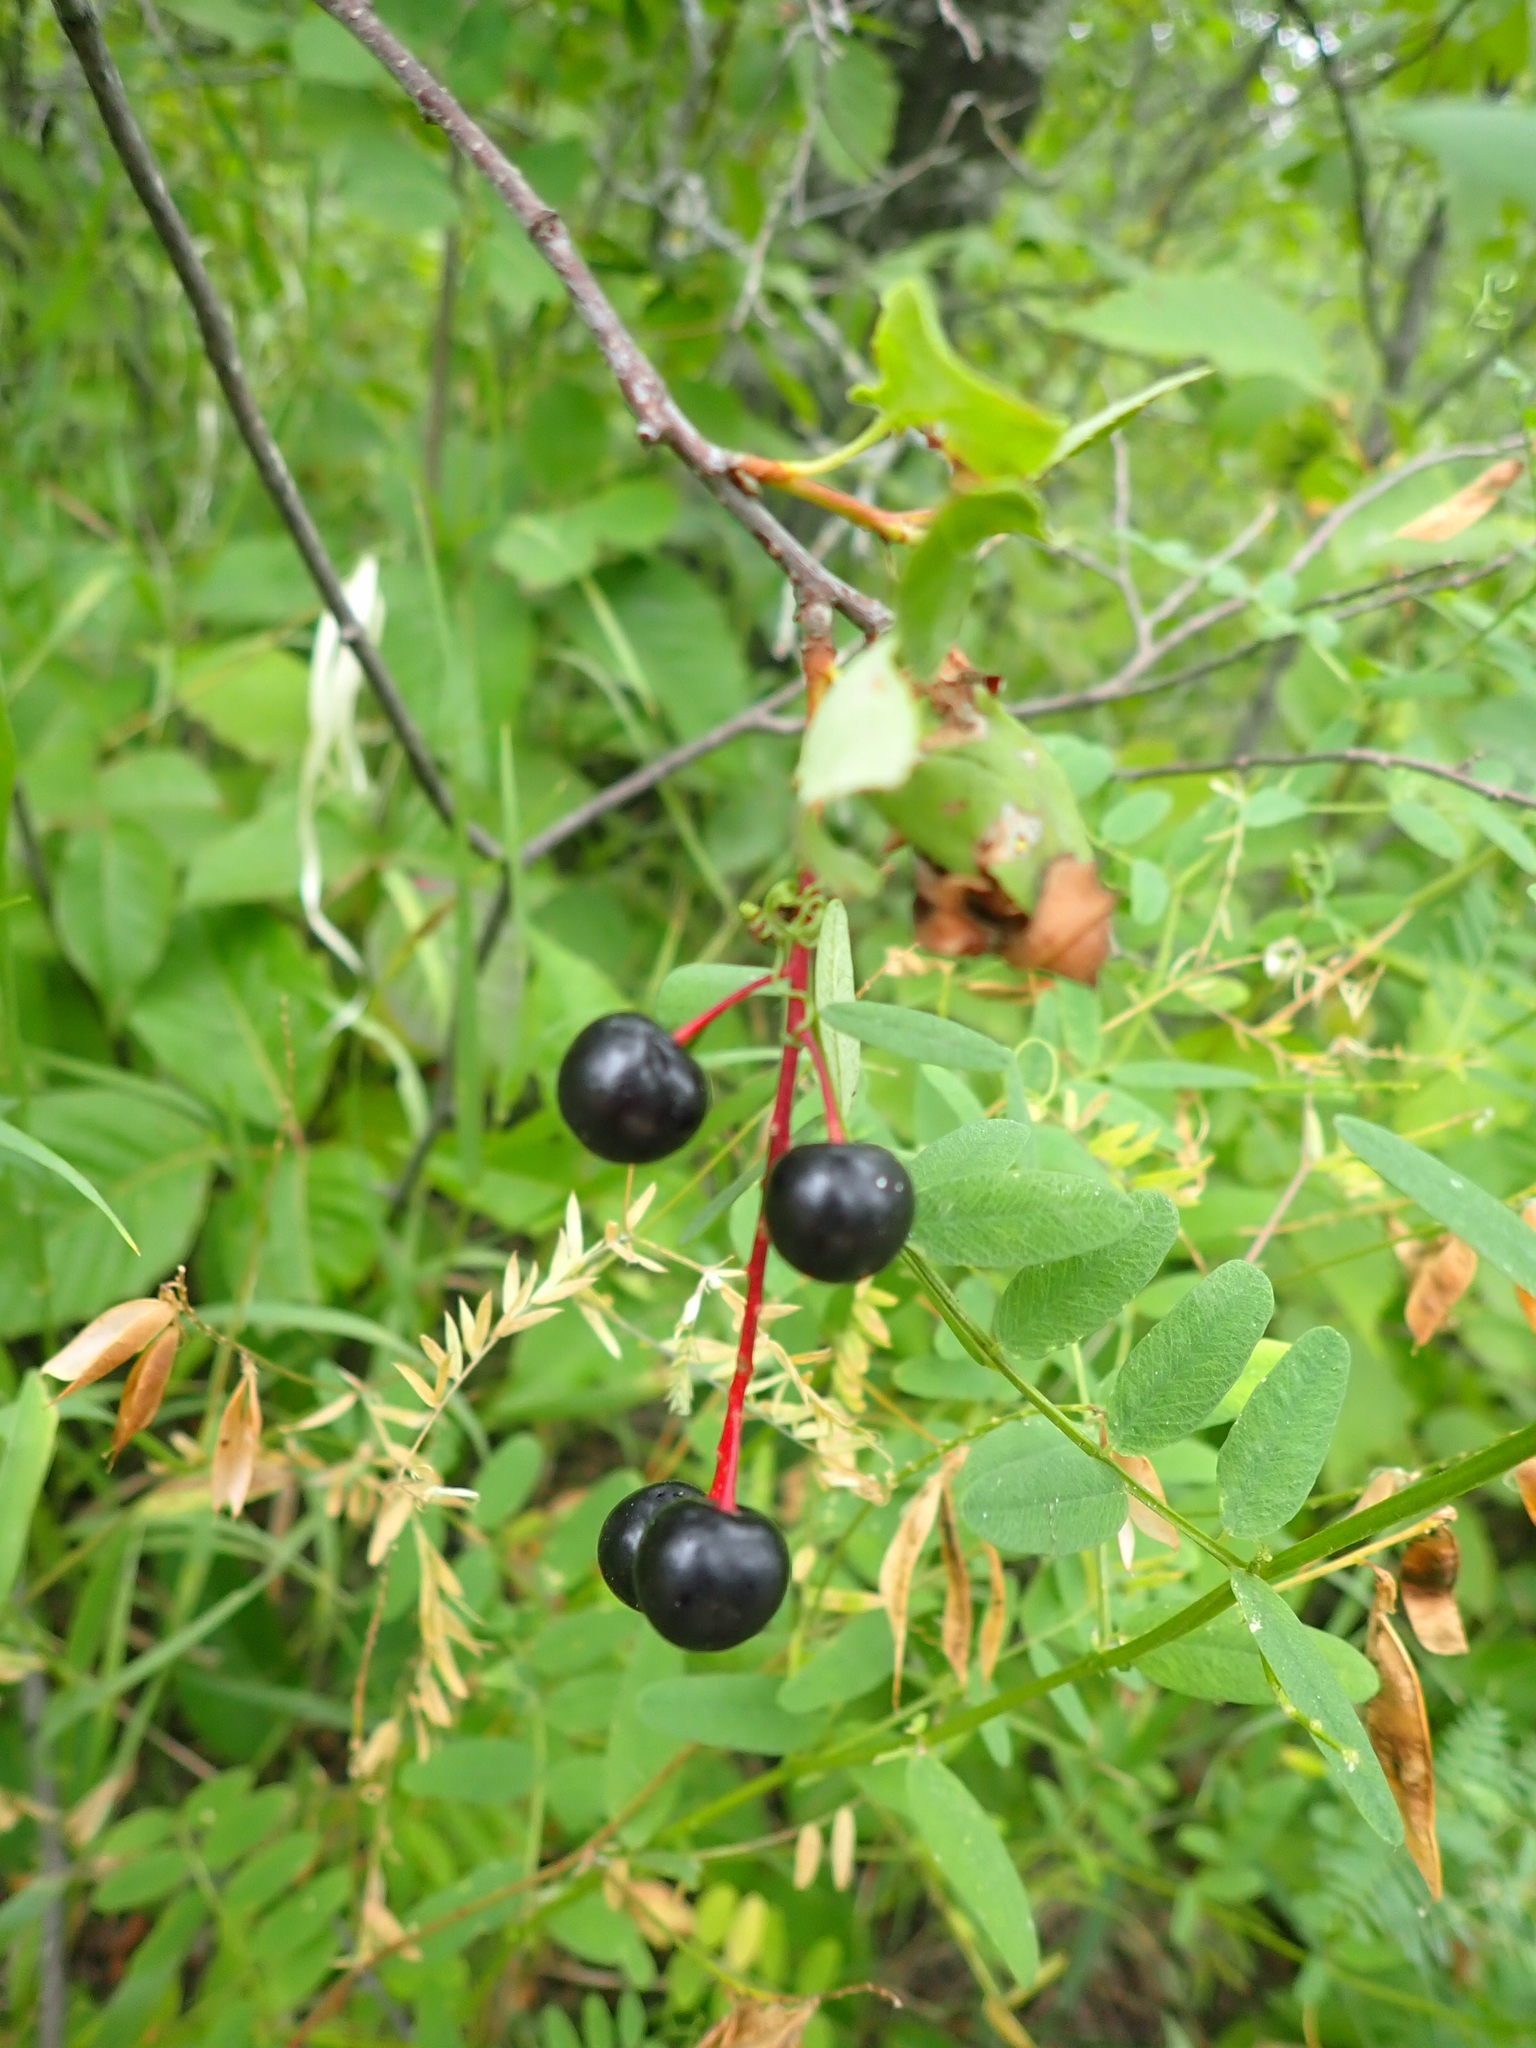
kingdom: Plantae
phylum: Tracheophyta
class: Magnoliopsida
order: Rosales
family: Rosaceae
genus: Prunus
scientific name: Prunus virginiana
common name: Chokecherry
